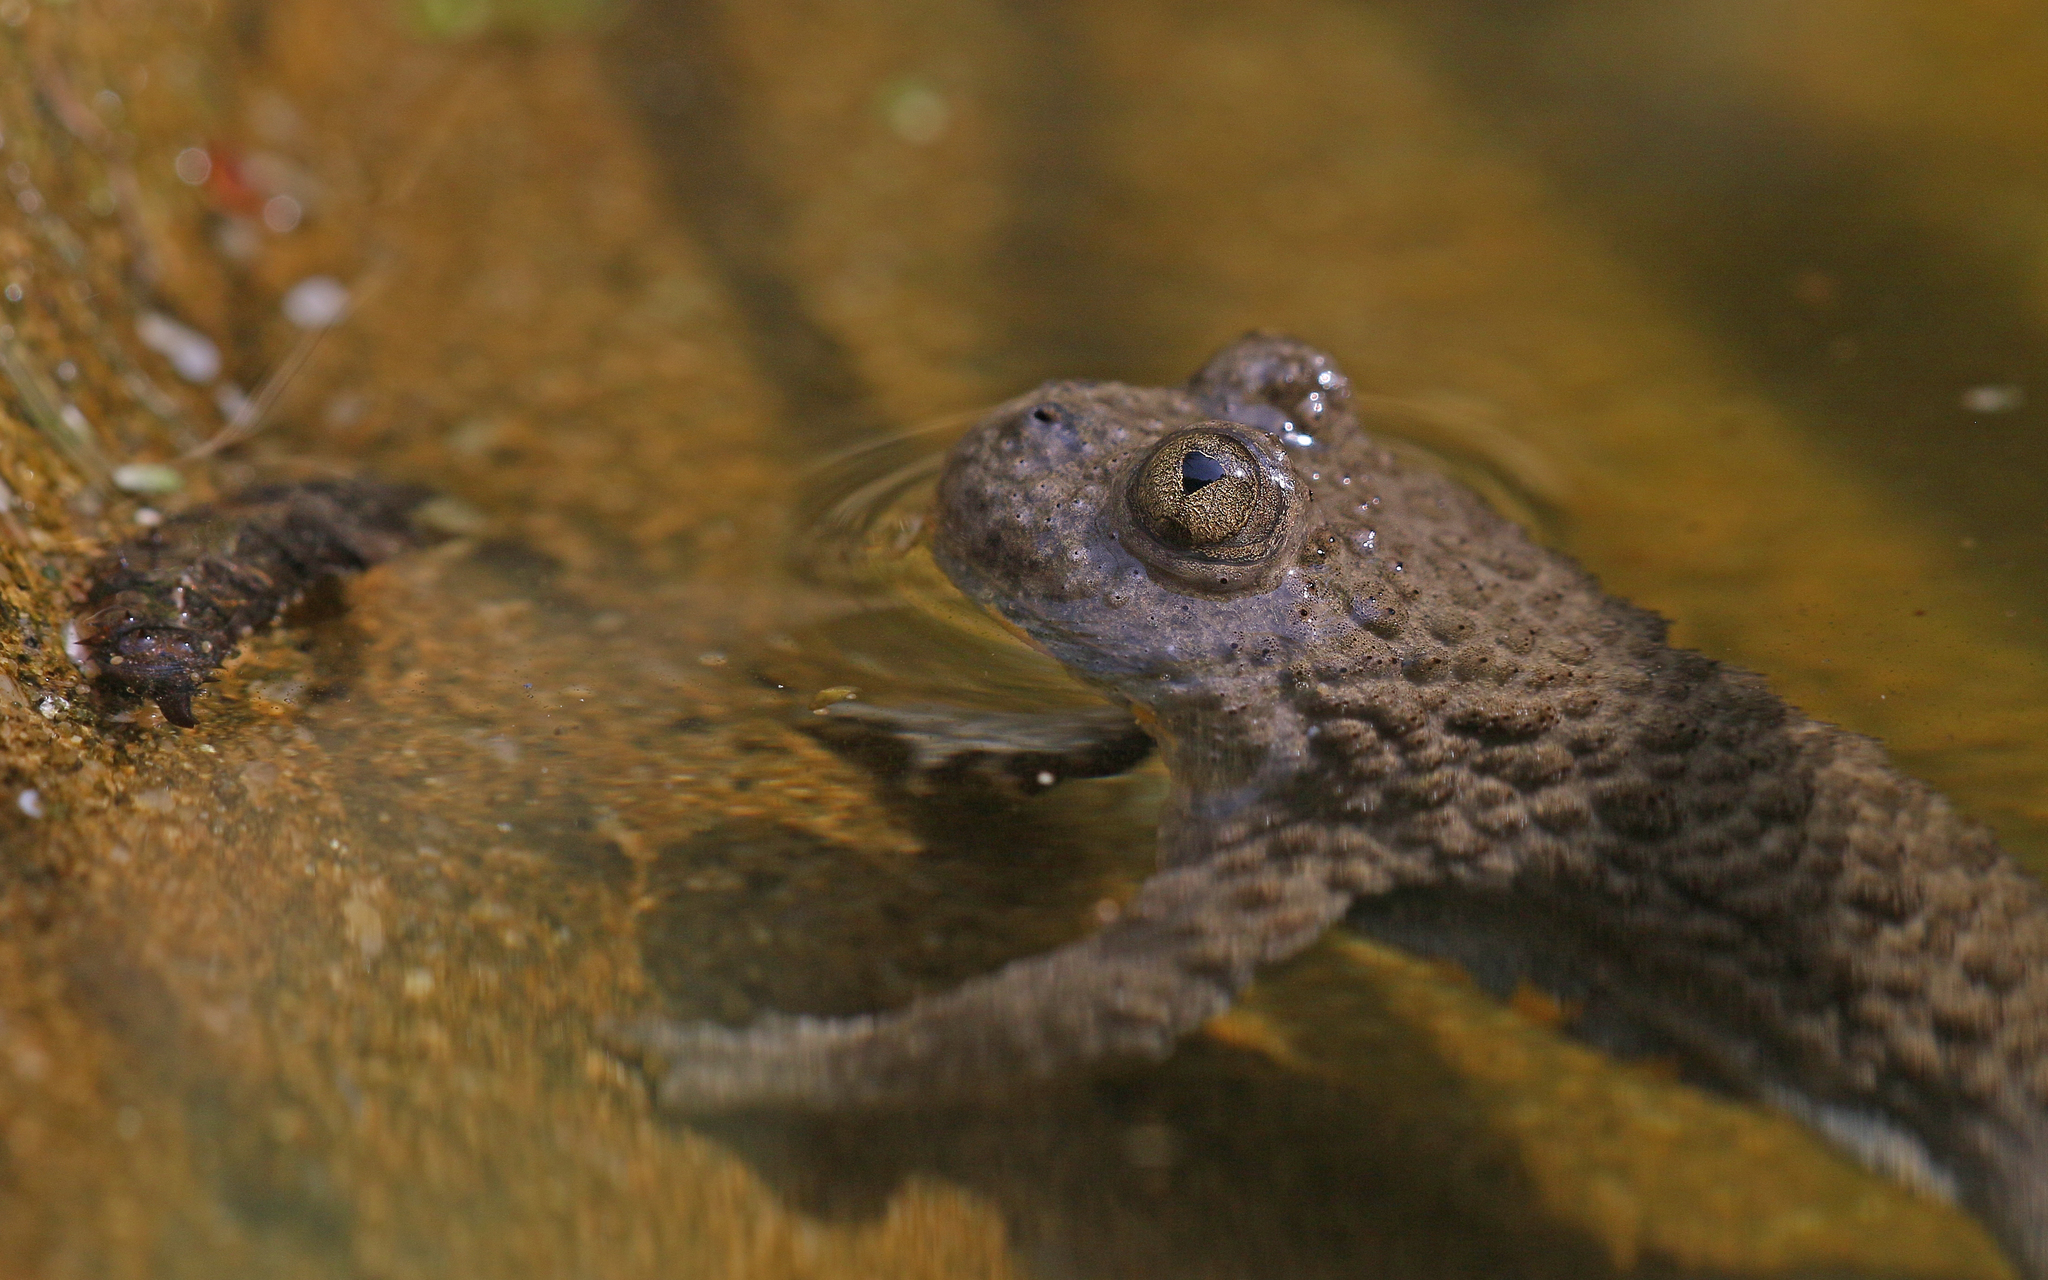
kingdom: Animalia
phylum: Chordata
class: Amphibia
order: Anura
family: Bombinatoridae
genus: Bombina
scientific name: Bombina variegata
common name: Yellow-bellied toad
